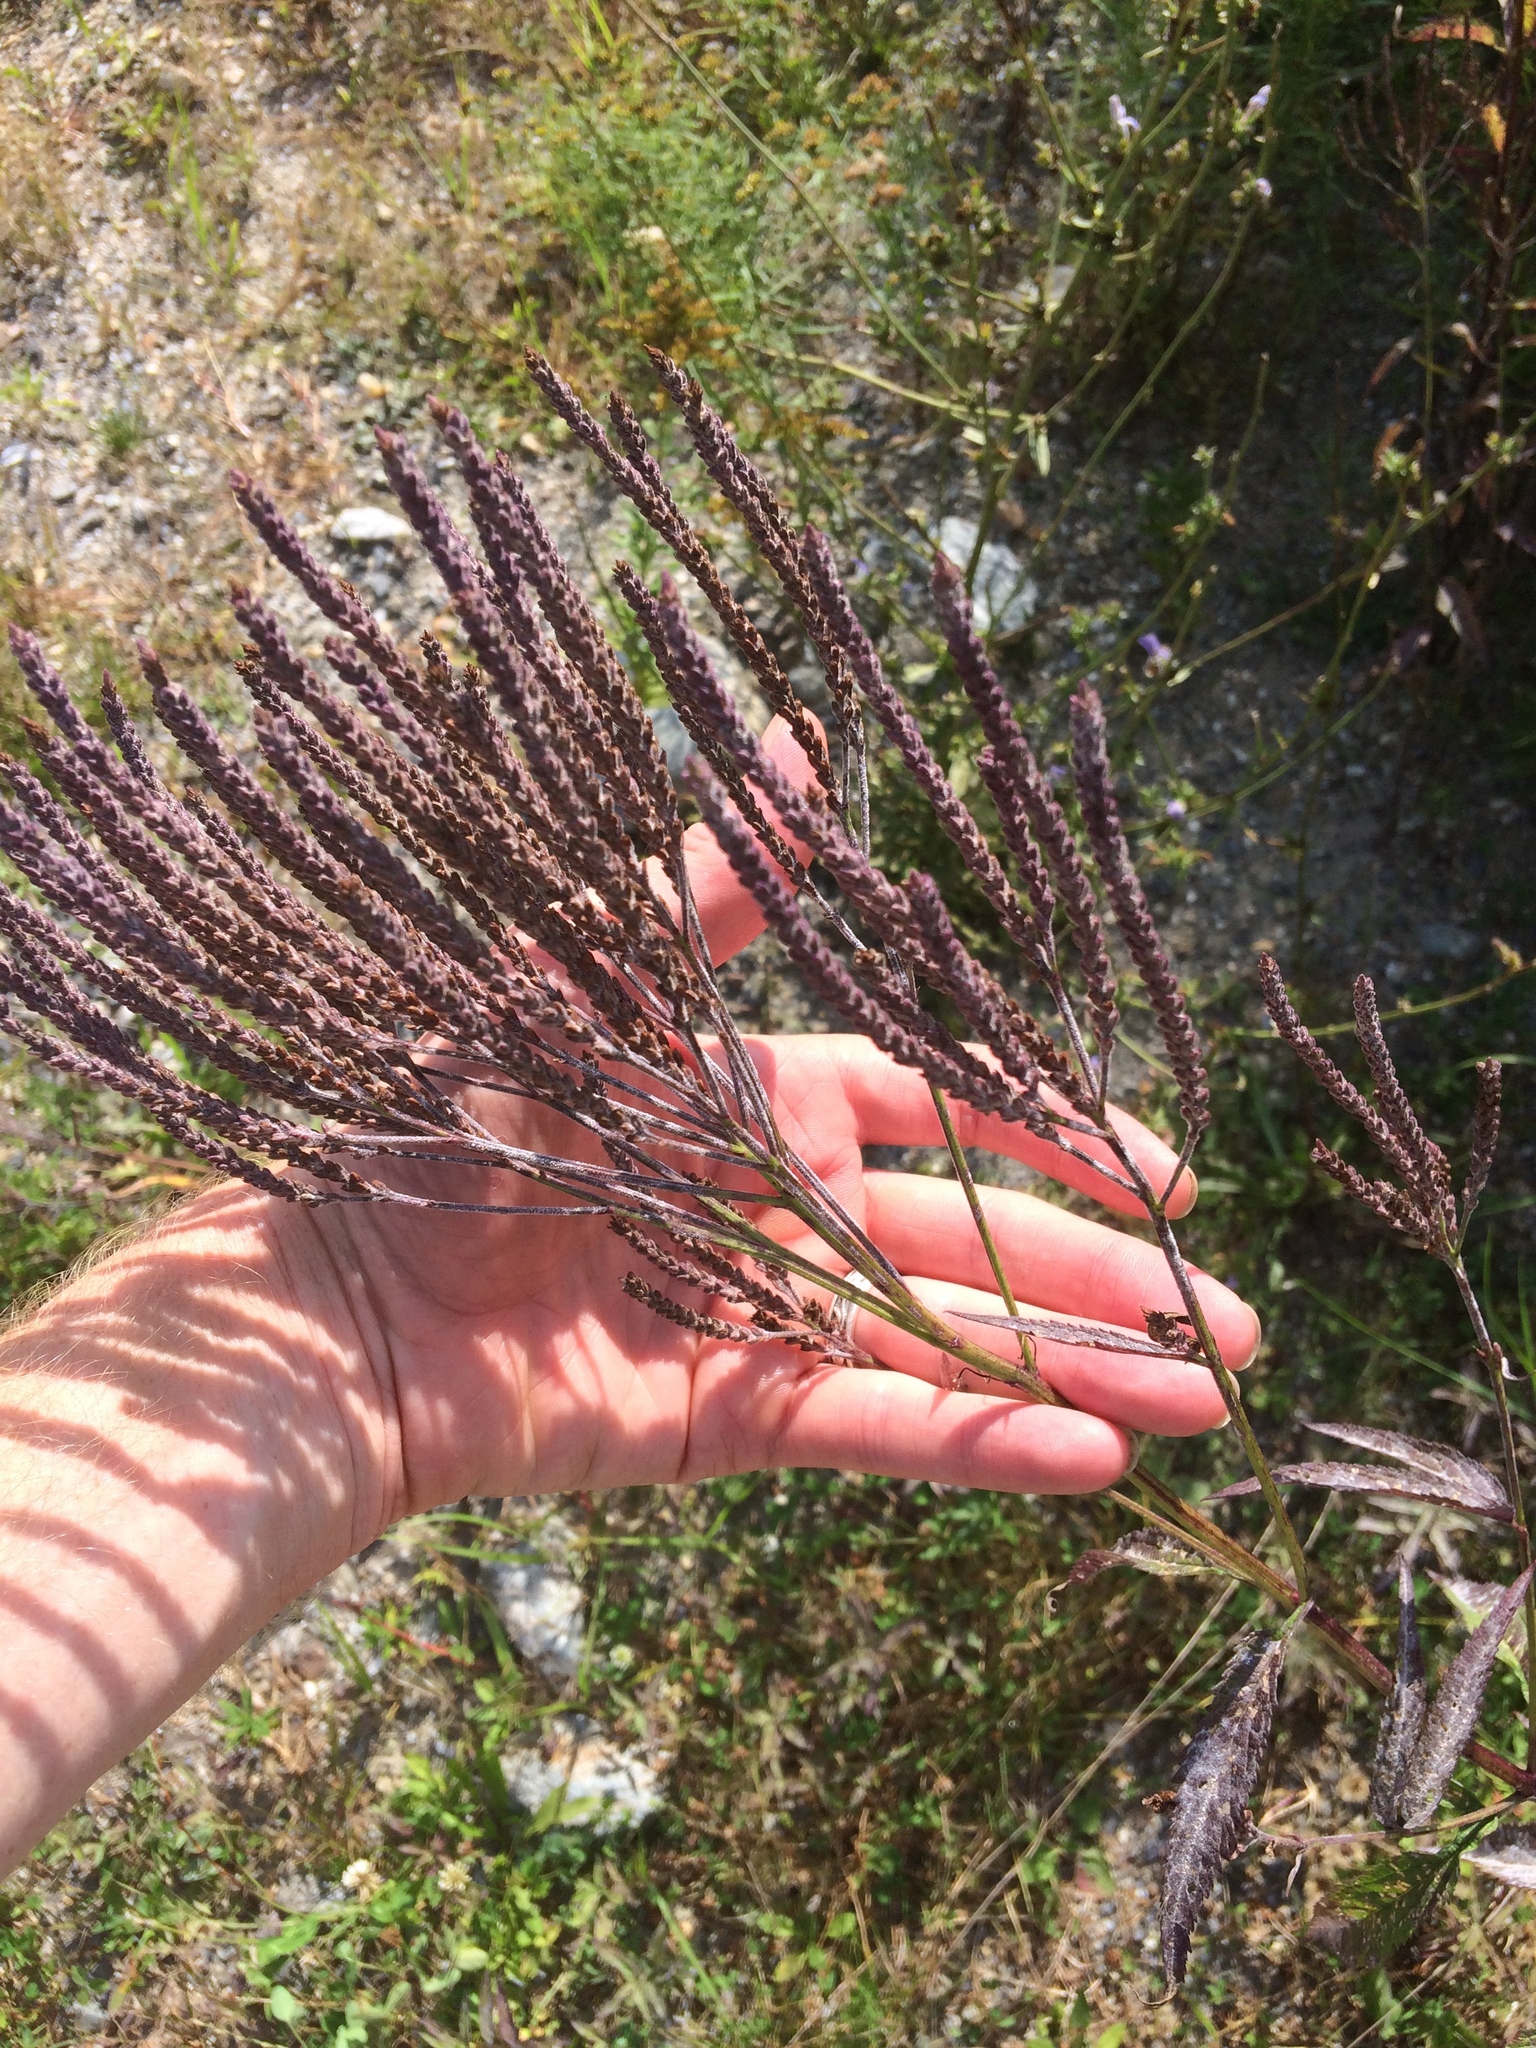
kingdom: Plantae
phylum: Tracheophyta
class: Magnoliopsida
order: Lamiales
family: Verbenaceae
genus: Verbena
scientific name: Verbena hastata
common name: American blue vervain
